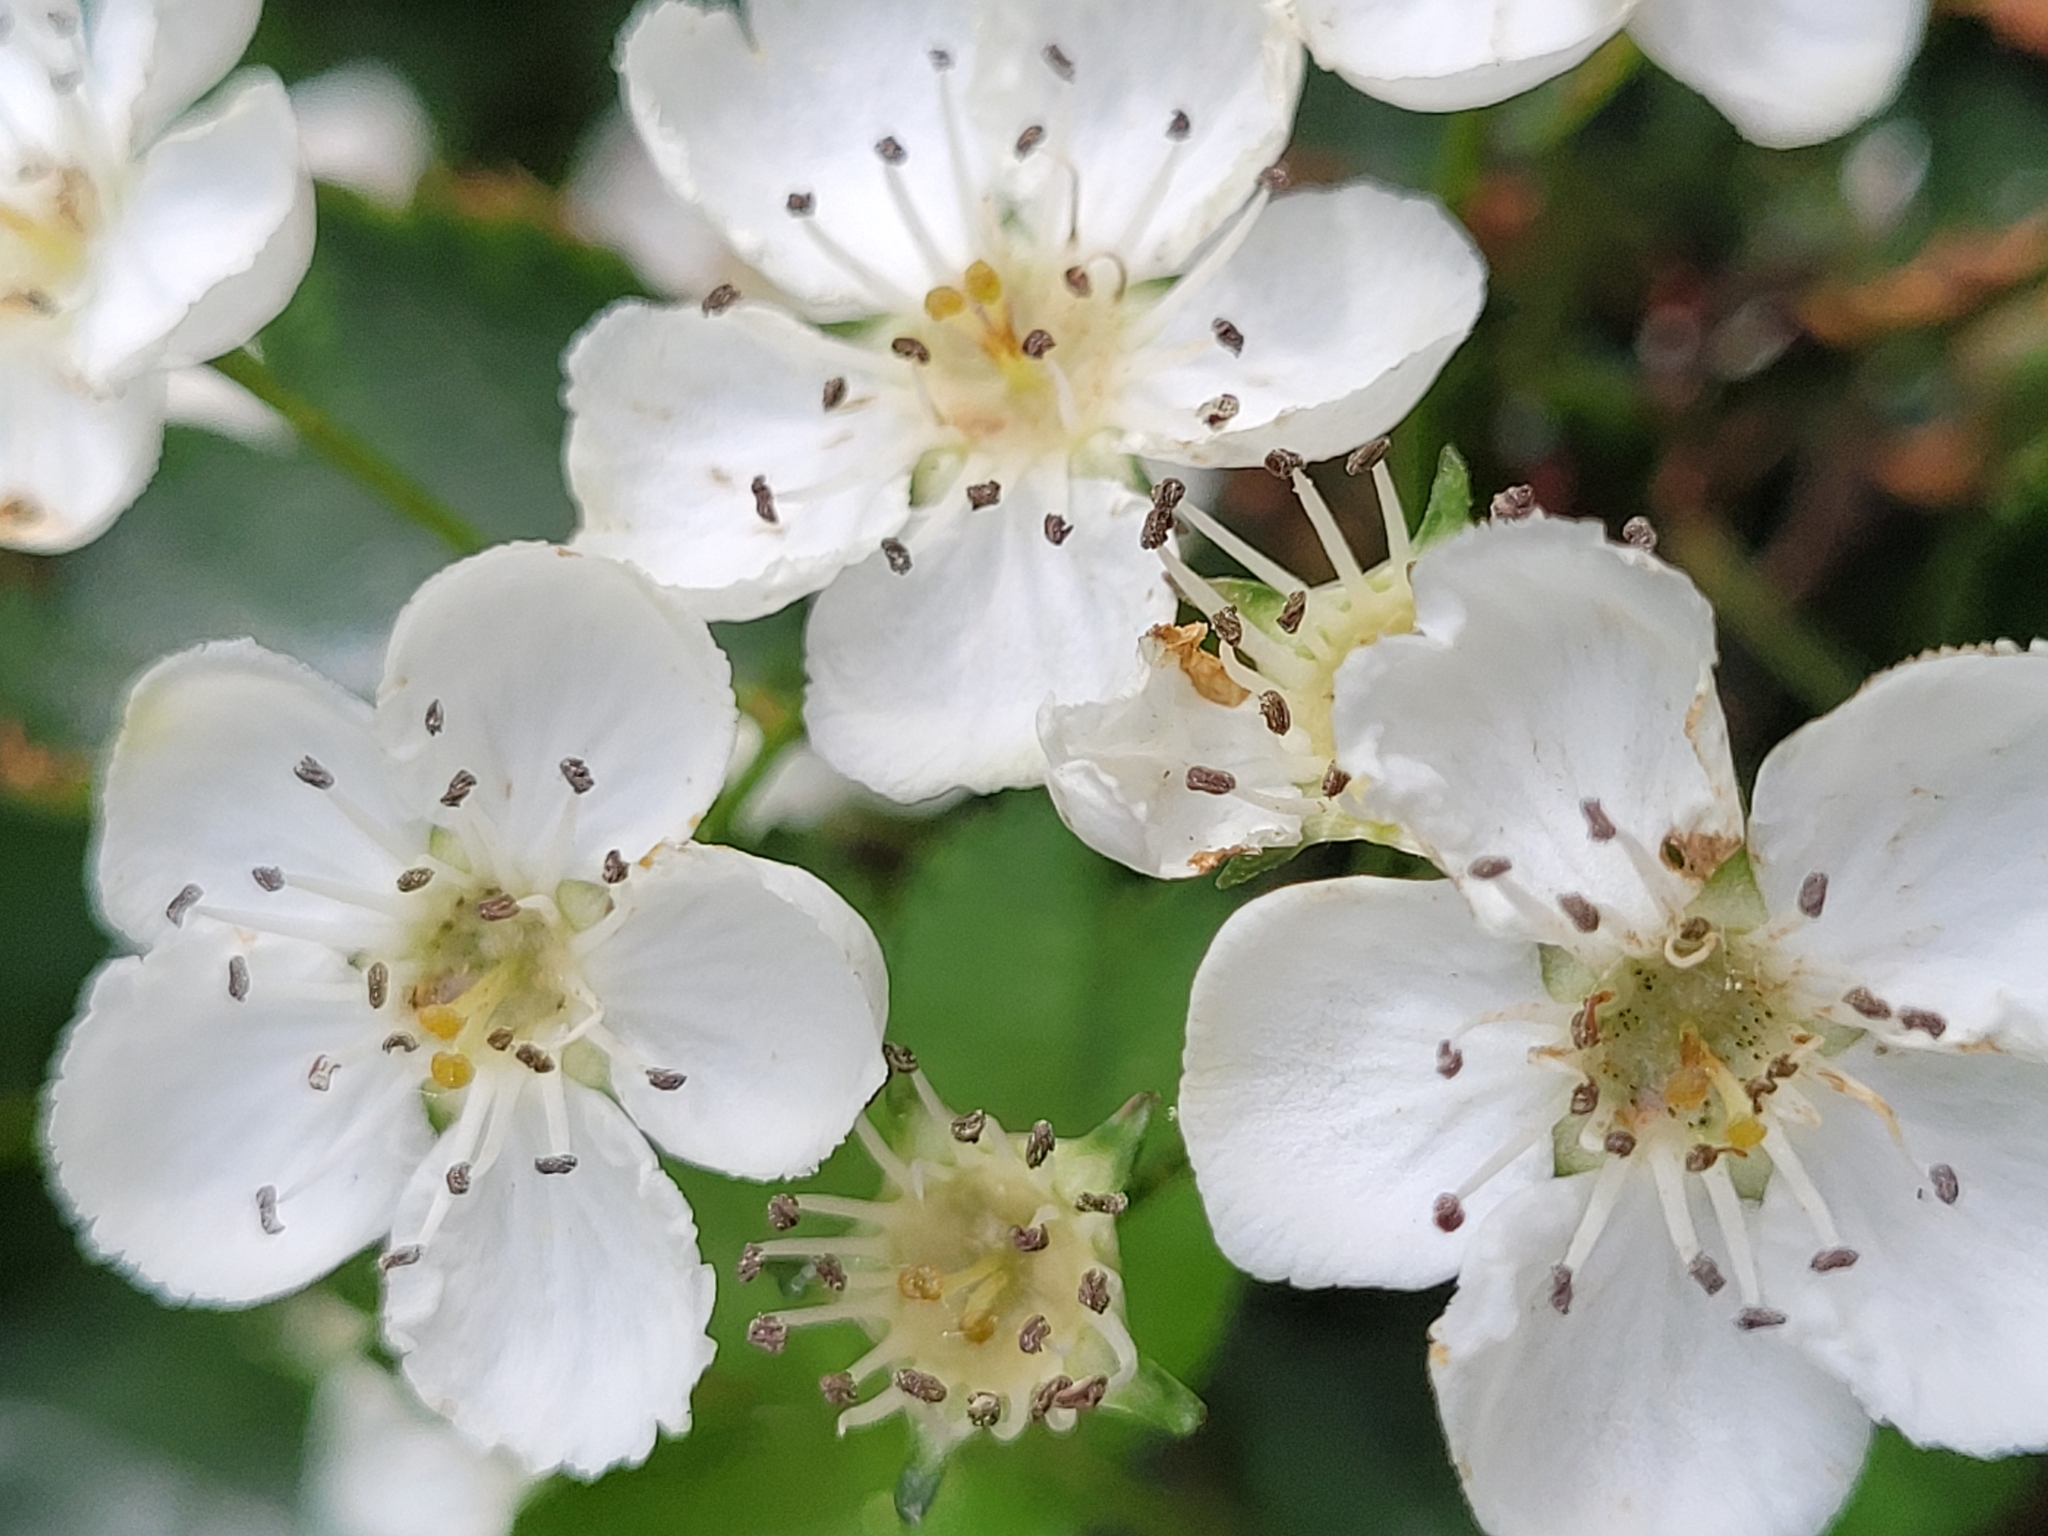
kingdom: Plantae
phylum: Tracheophyta
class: Magnoliopsida
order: Rosales
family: Rosaceae
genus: Crataegus
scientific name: Crataegus laevigata
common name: Midland hawthorn
